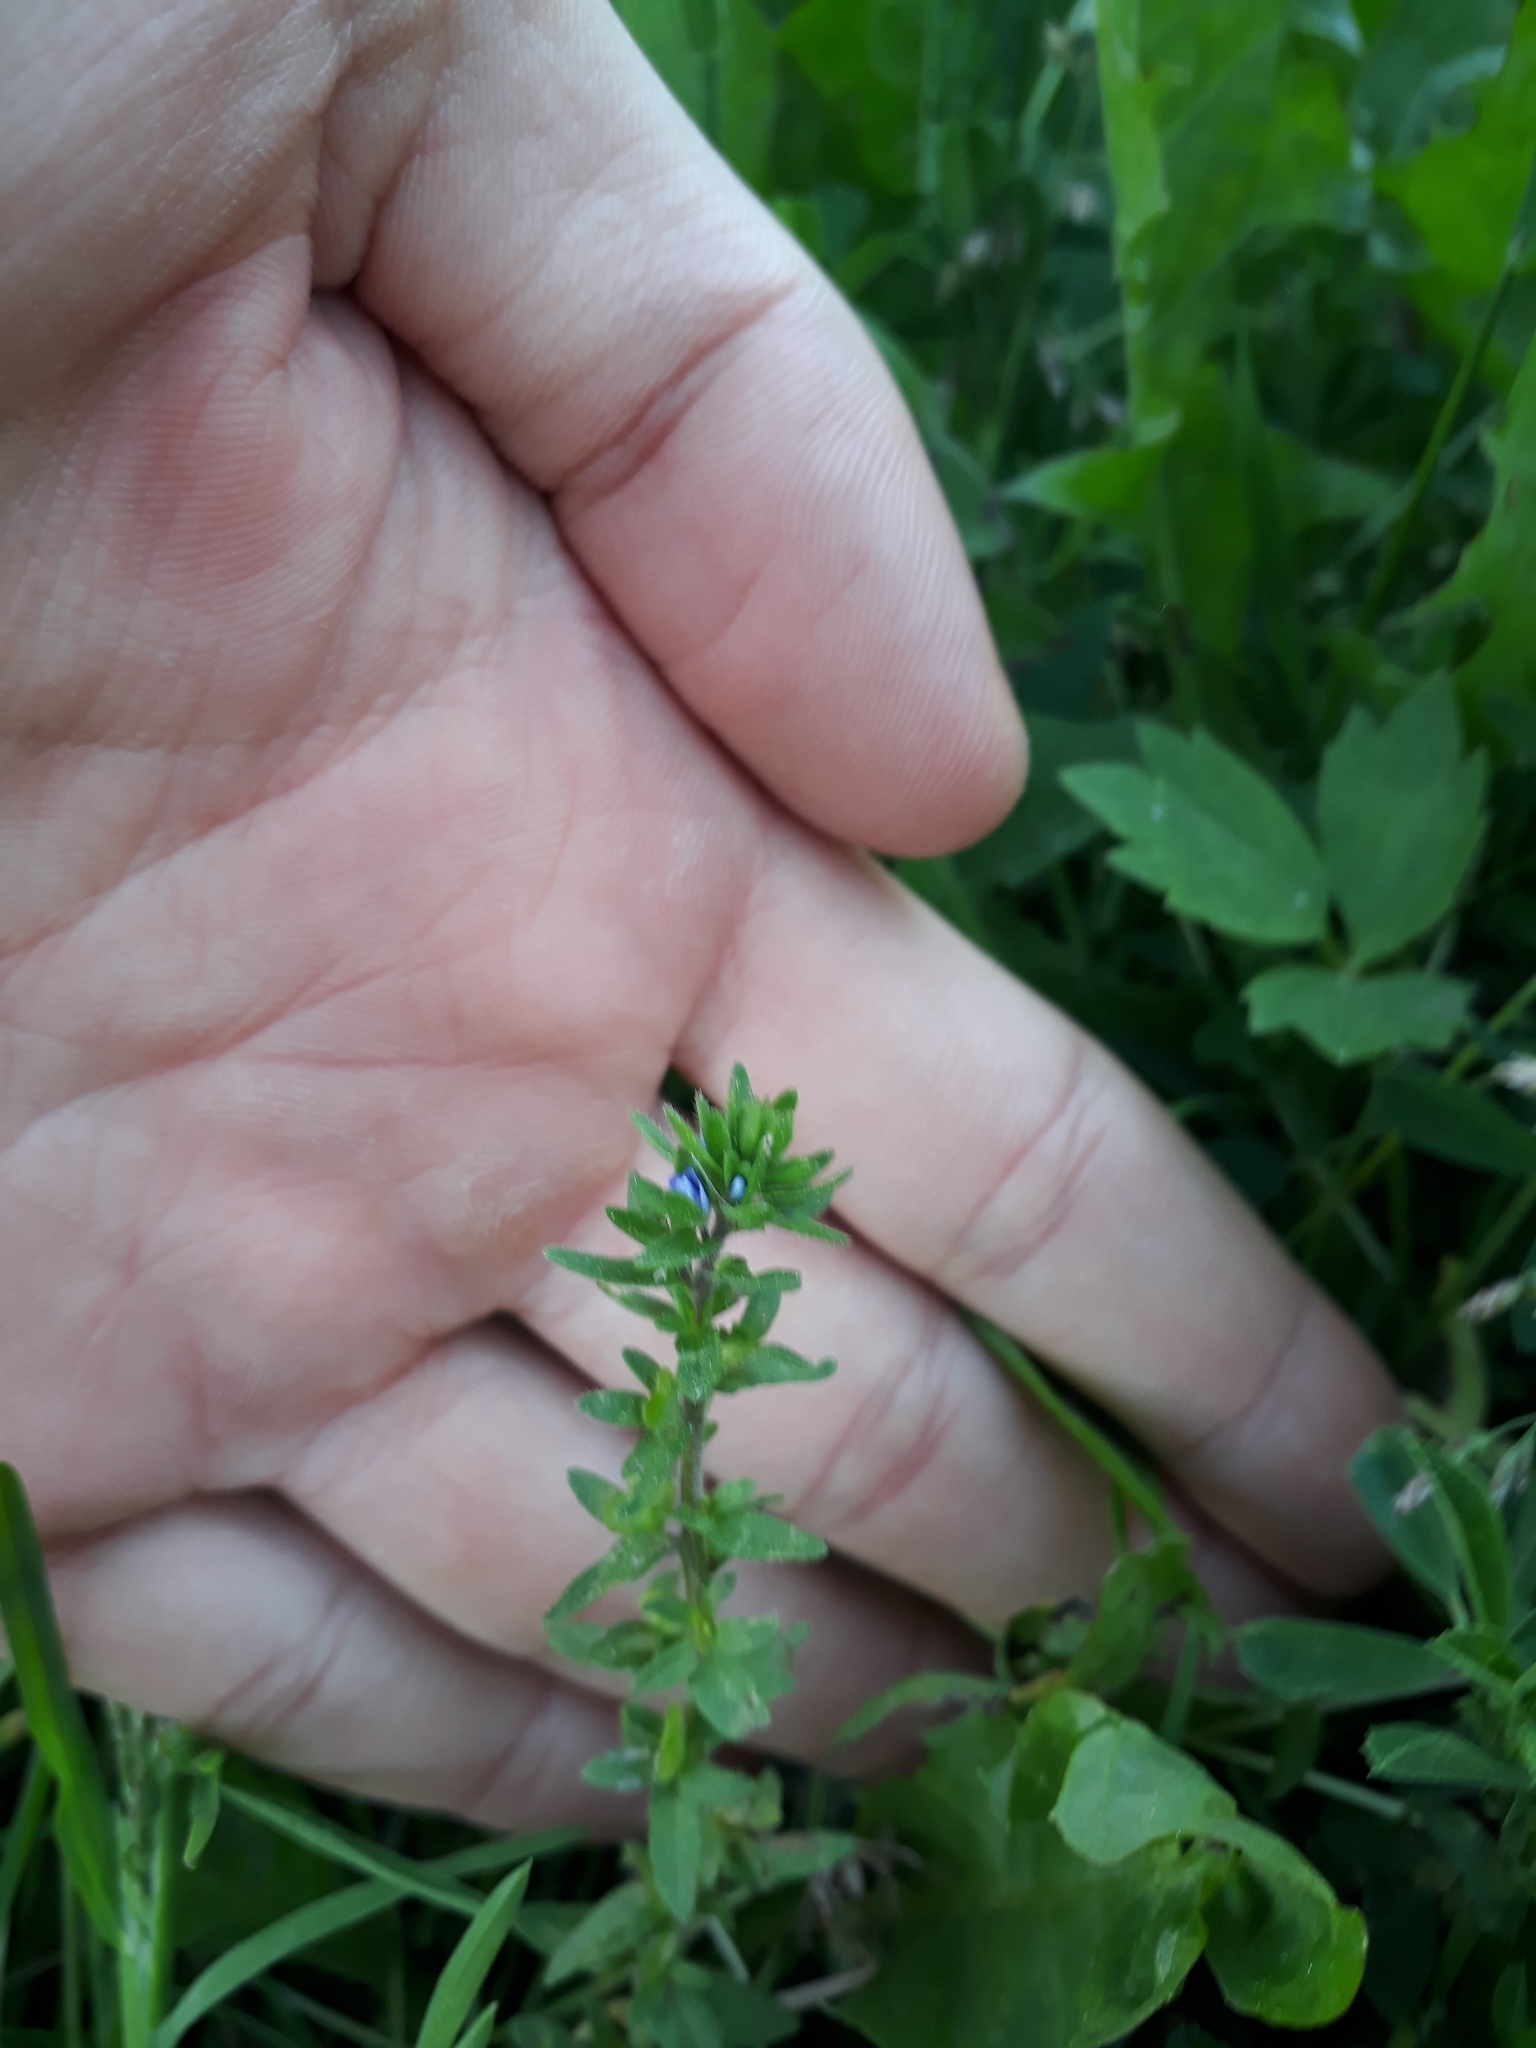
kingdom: Plantae
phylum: Tracheophyta
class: Magnoliopsida
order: Lamiales
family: Plantaginaceae
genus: Veronica
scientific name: Veronica arvensis
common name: Corn speedwell
